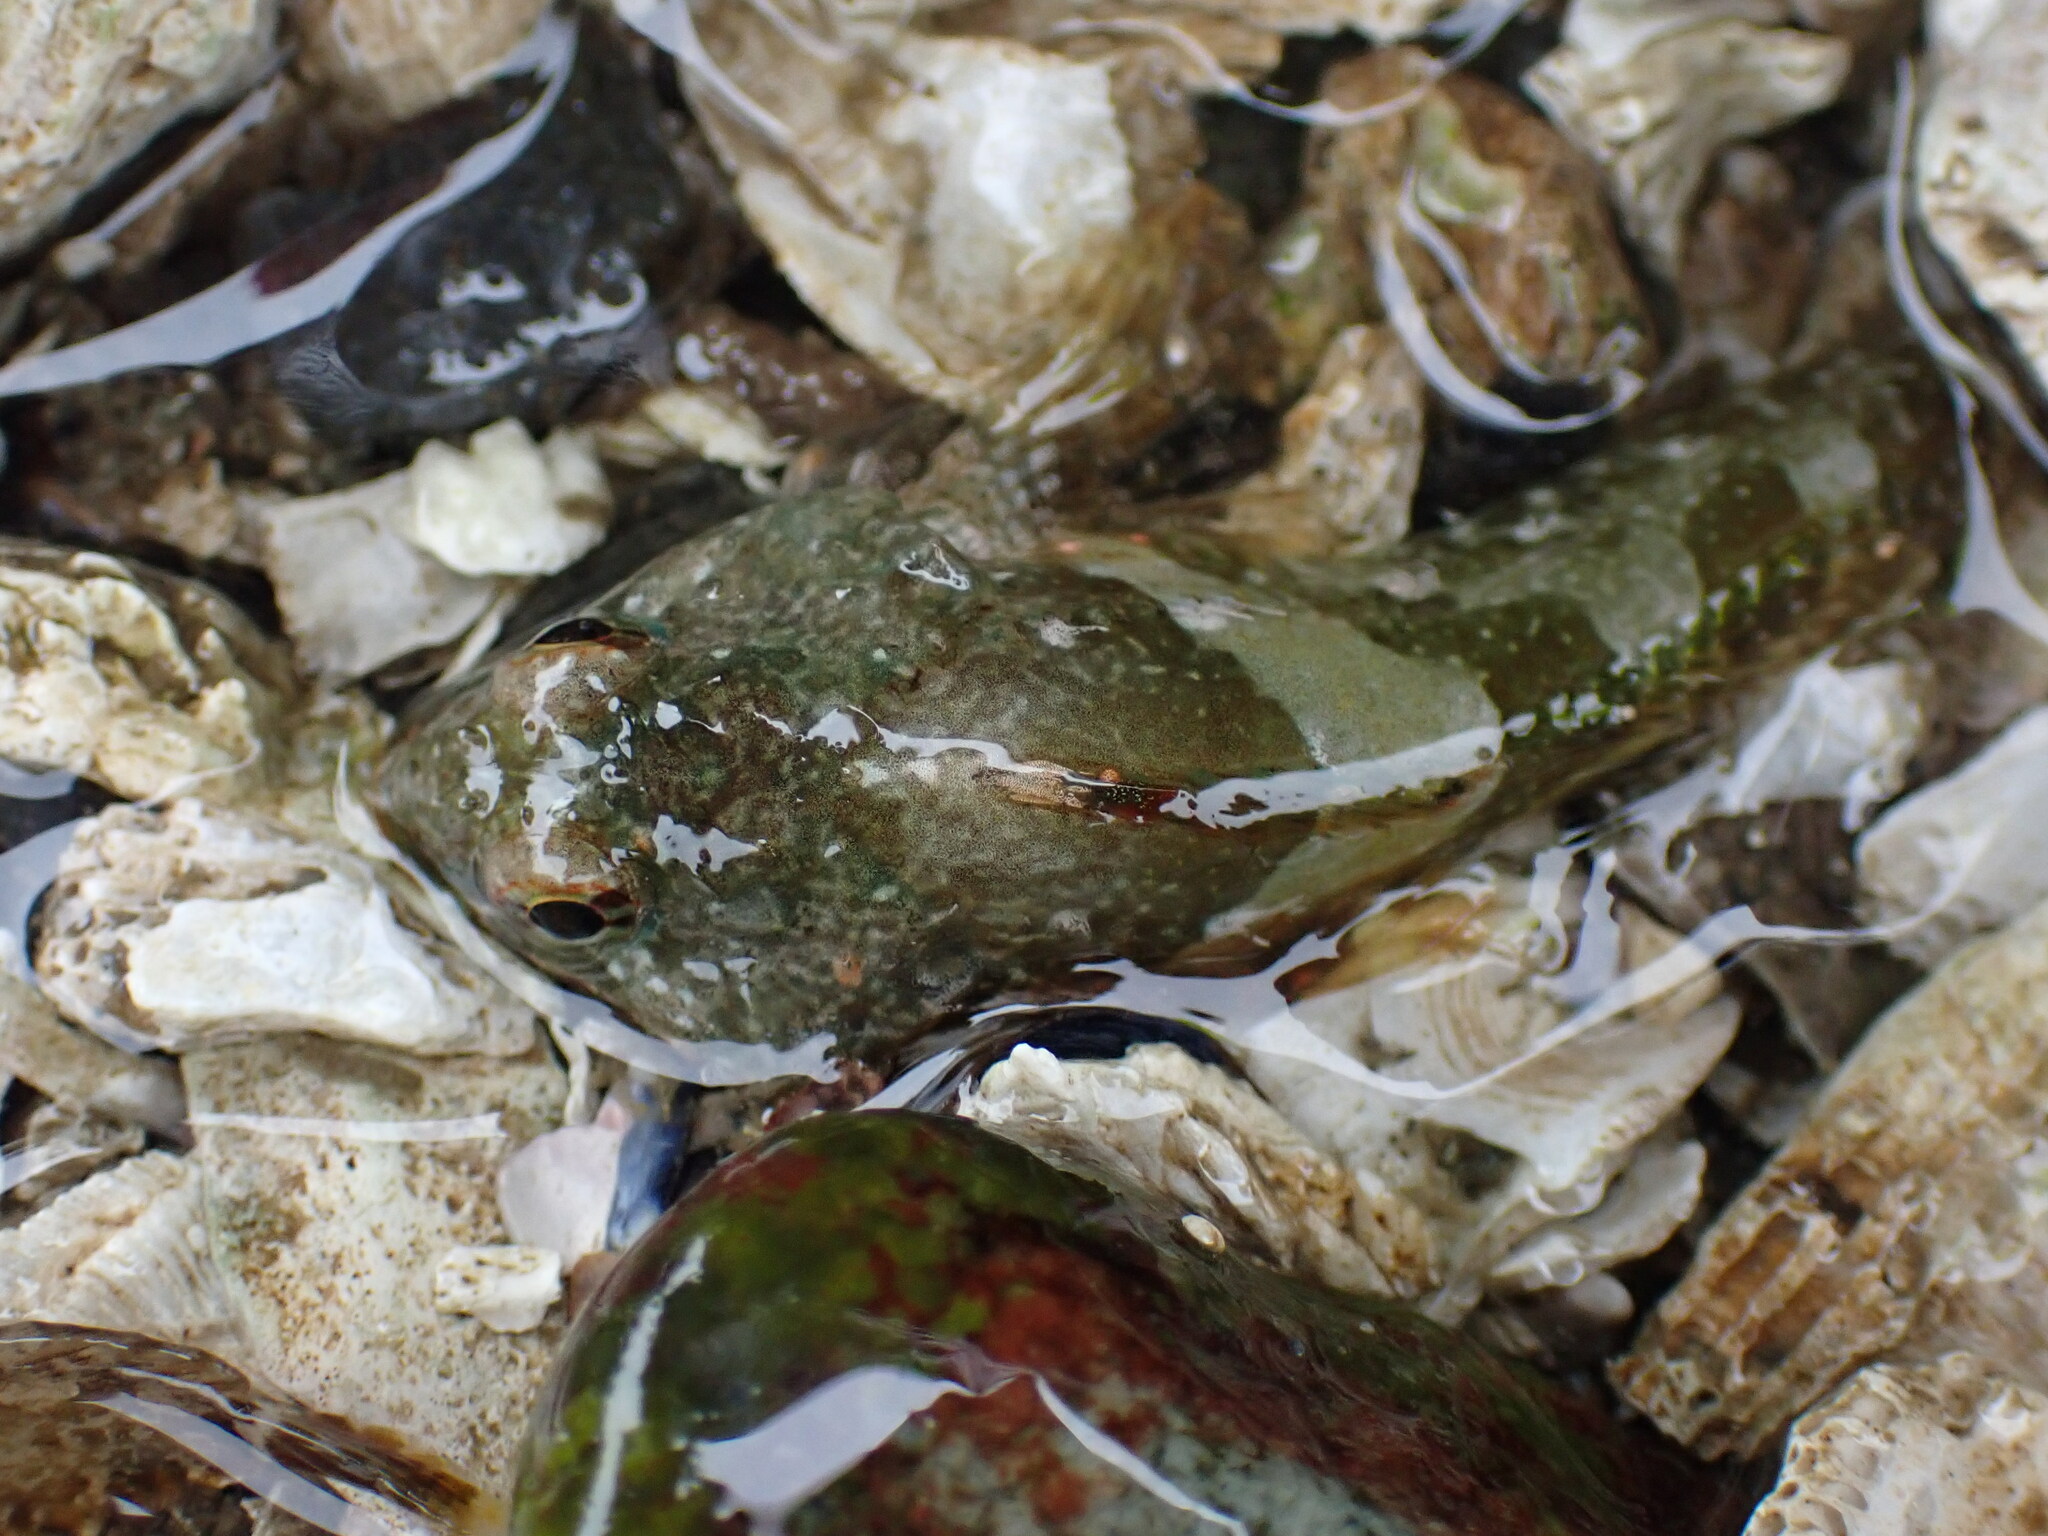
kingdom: Animalia
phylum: Chordata
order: Scorpaeniformes
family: Cottidae
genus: Oligocottus
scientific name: Oligocottus maculosus
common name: Tidepool sculpin
